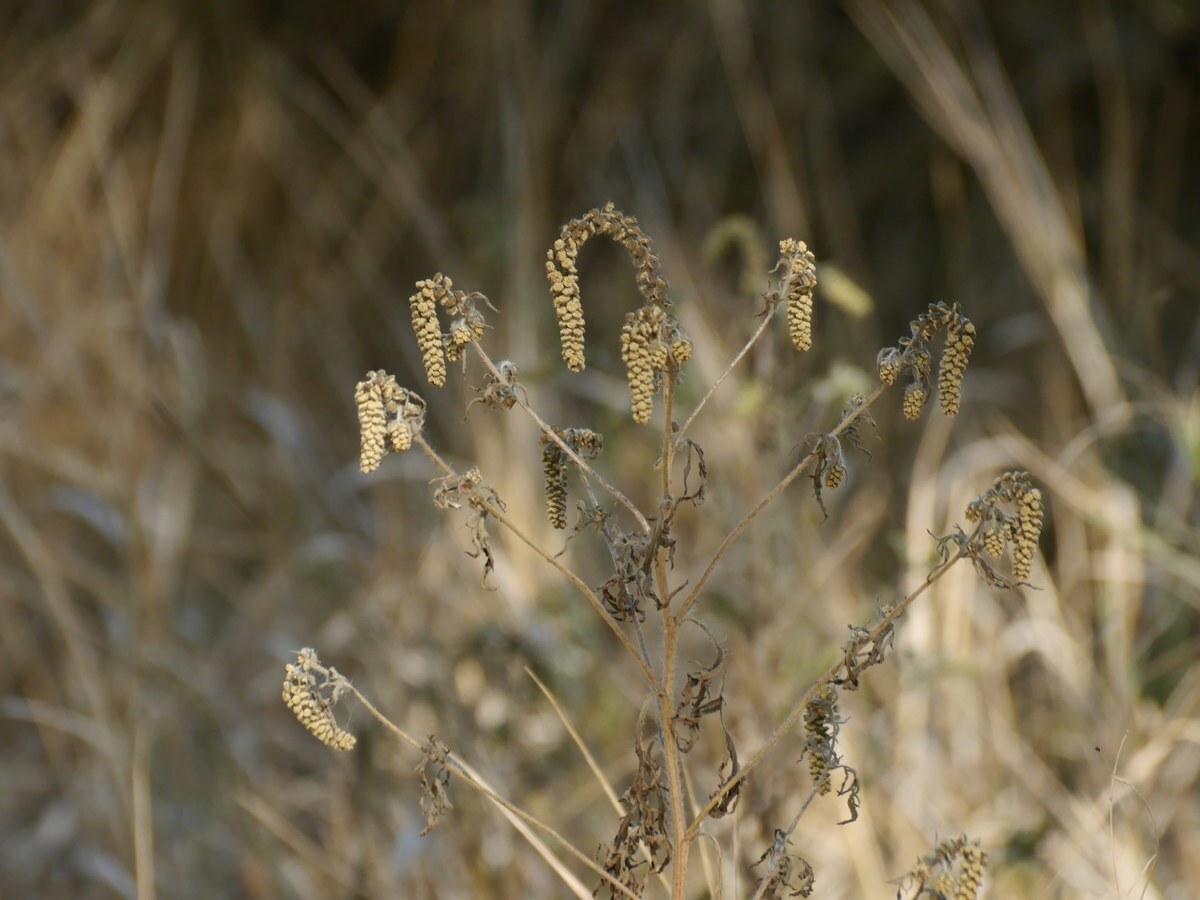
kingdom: Plantae
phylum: Tracheophyta
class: Magnoliopsida
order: Asterales
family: Asteraceae
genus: Ambrosia
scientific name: Ambrosia artemisiifolia
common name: Annual ragweed
